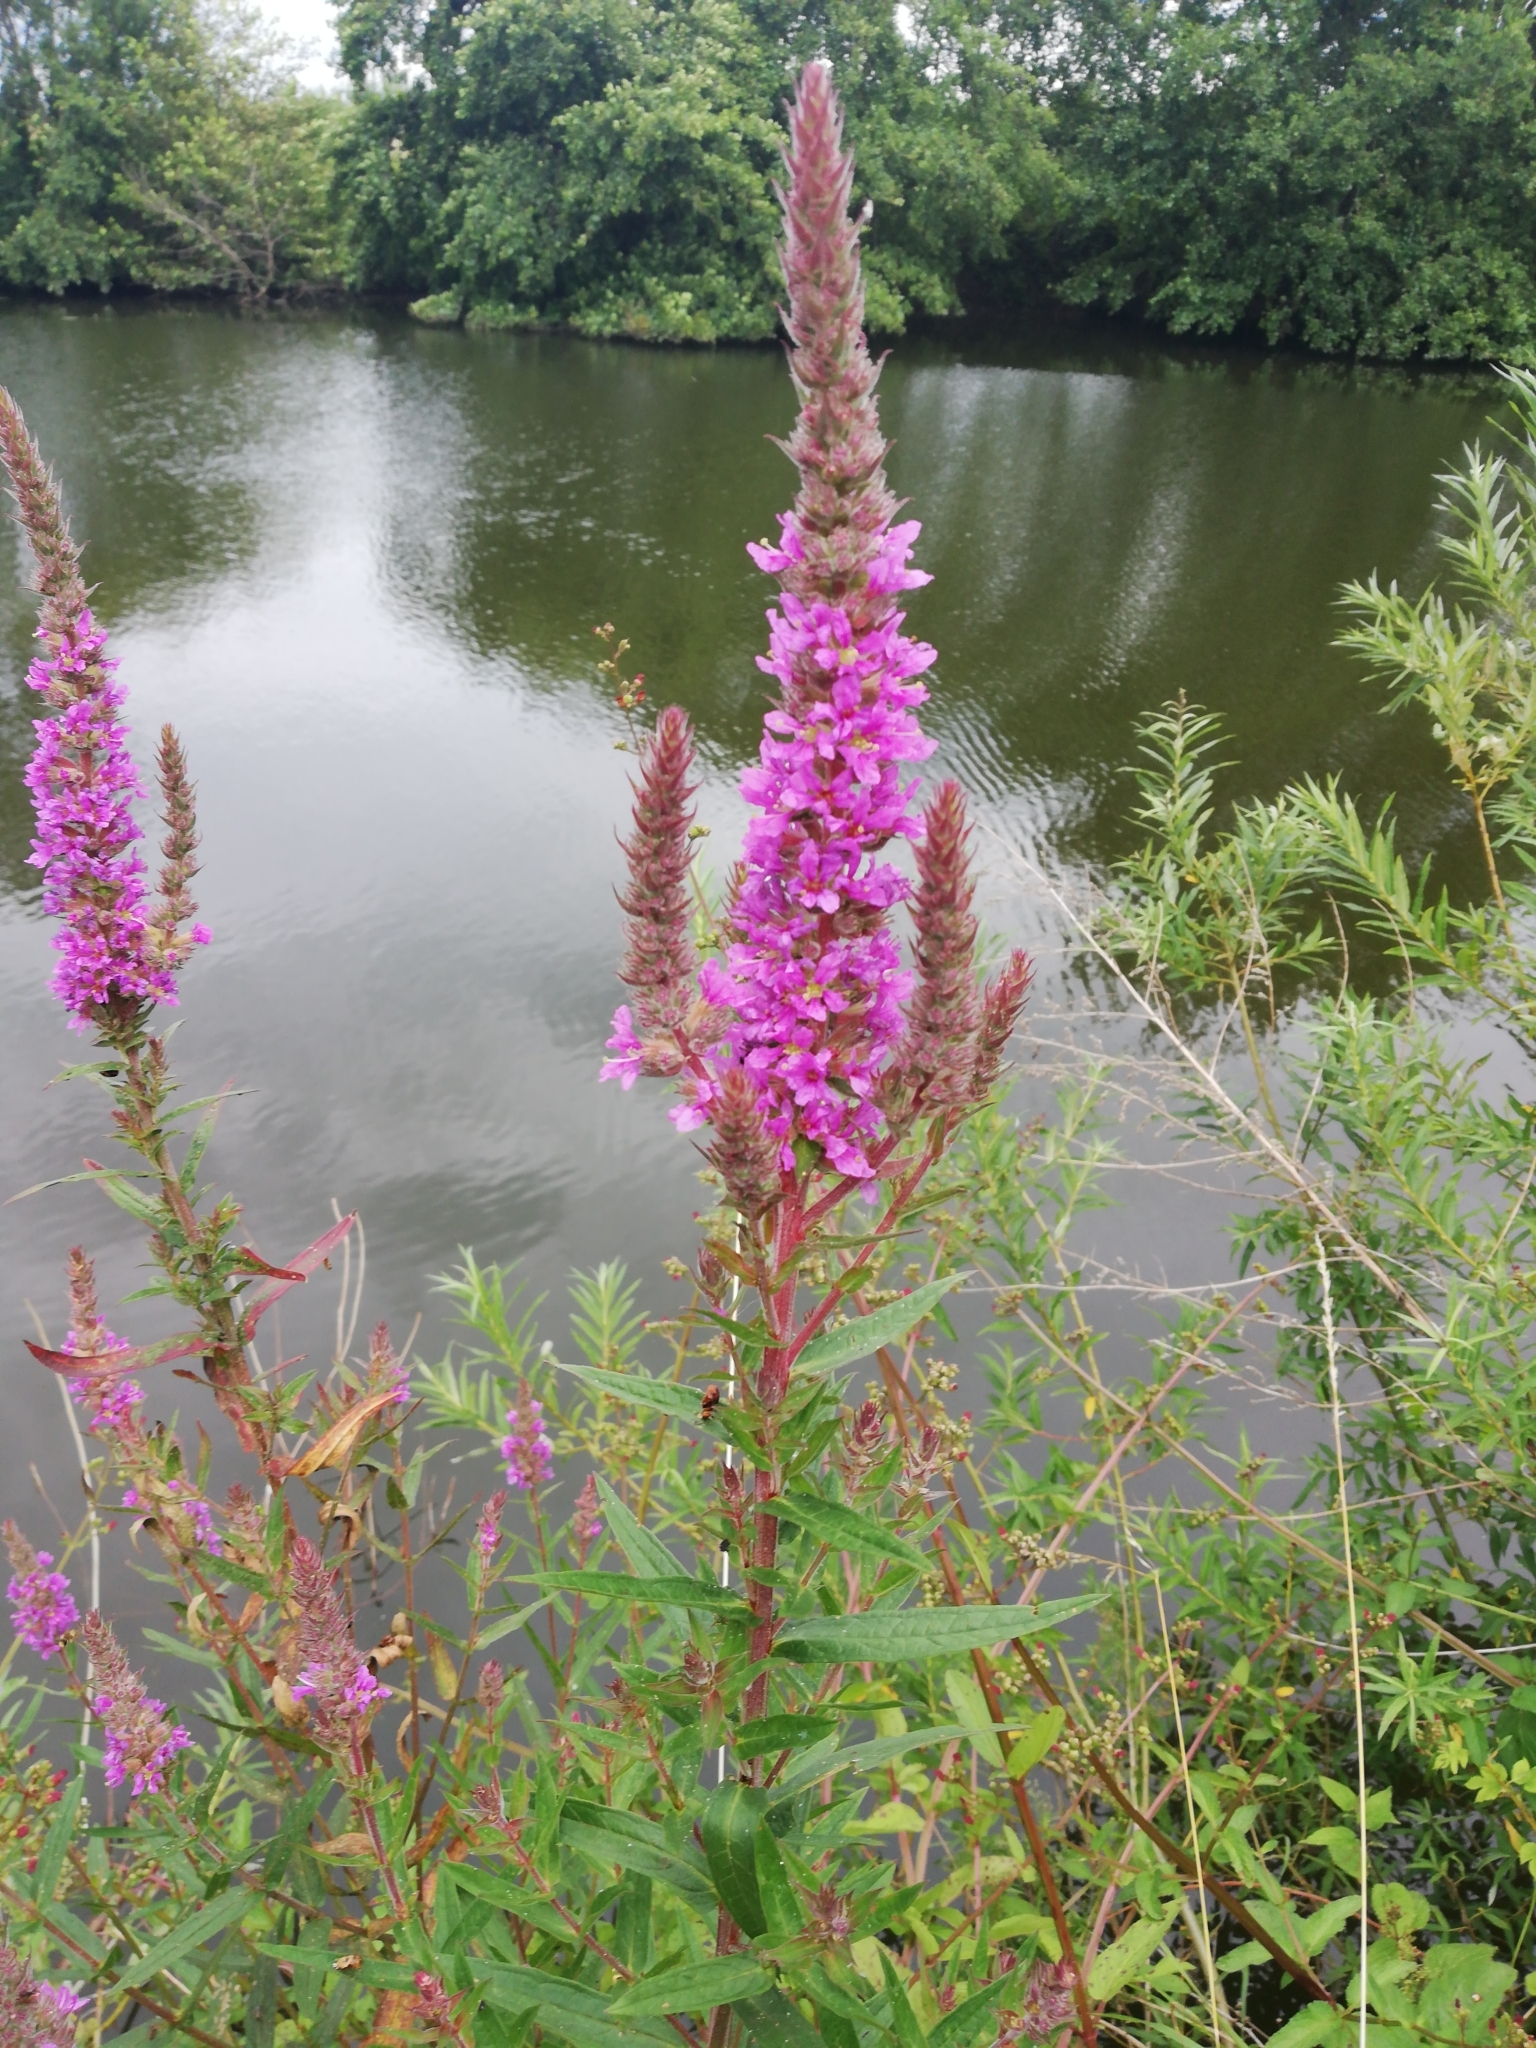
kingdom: Plantae
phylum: Tracheophyta
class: Magnoliopsida
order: Myrtales
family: Lythraceae
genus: Lythrum
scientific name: Lythrum salicaria
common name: Purple loosestrife
